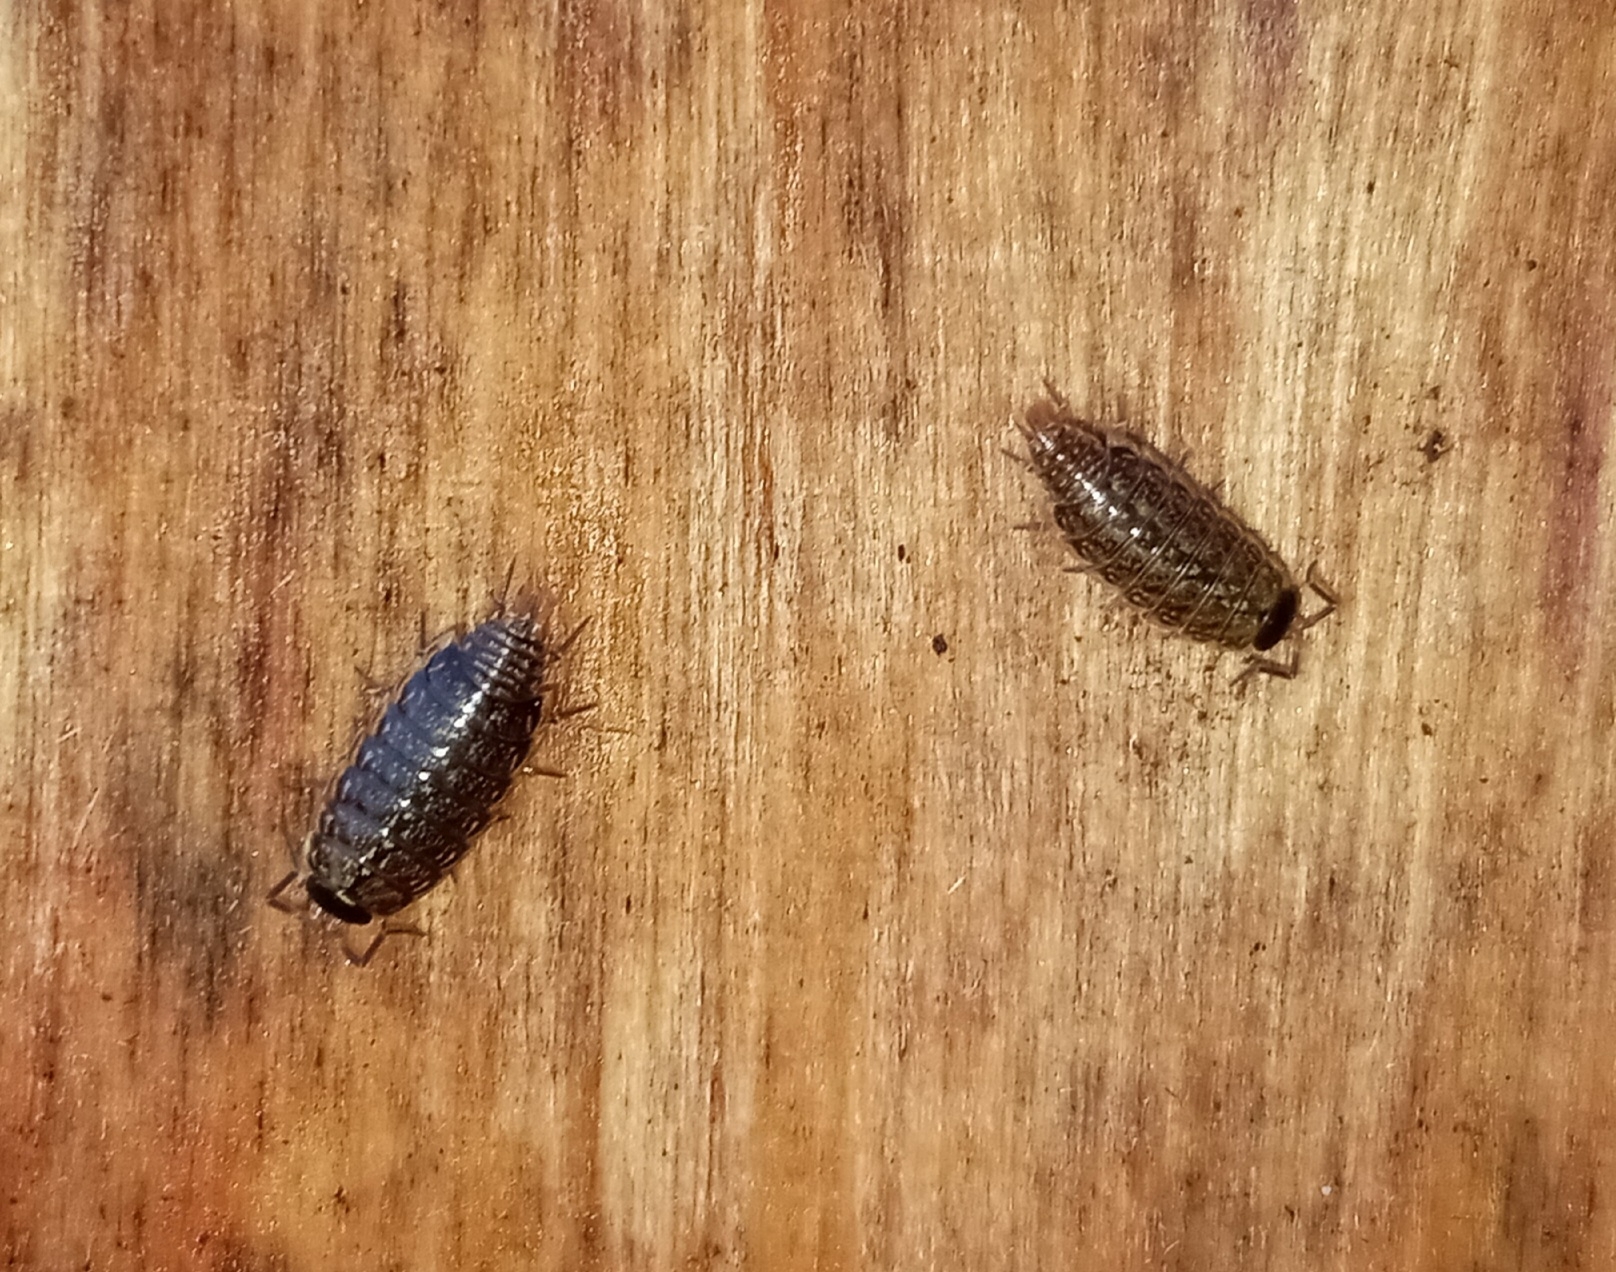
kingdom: Animalia
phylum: Arthropoda
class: Malacostraca
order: Isopoda
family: Philosciidae
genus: Philoscia
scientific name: Philoscia muscorum
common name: Common striped woodlouse
